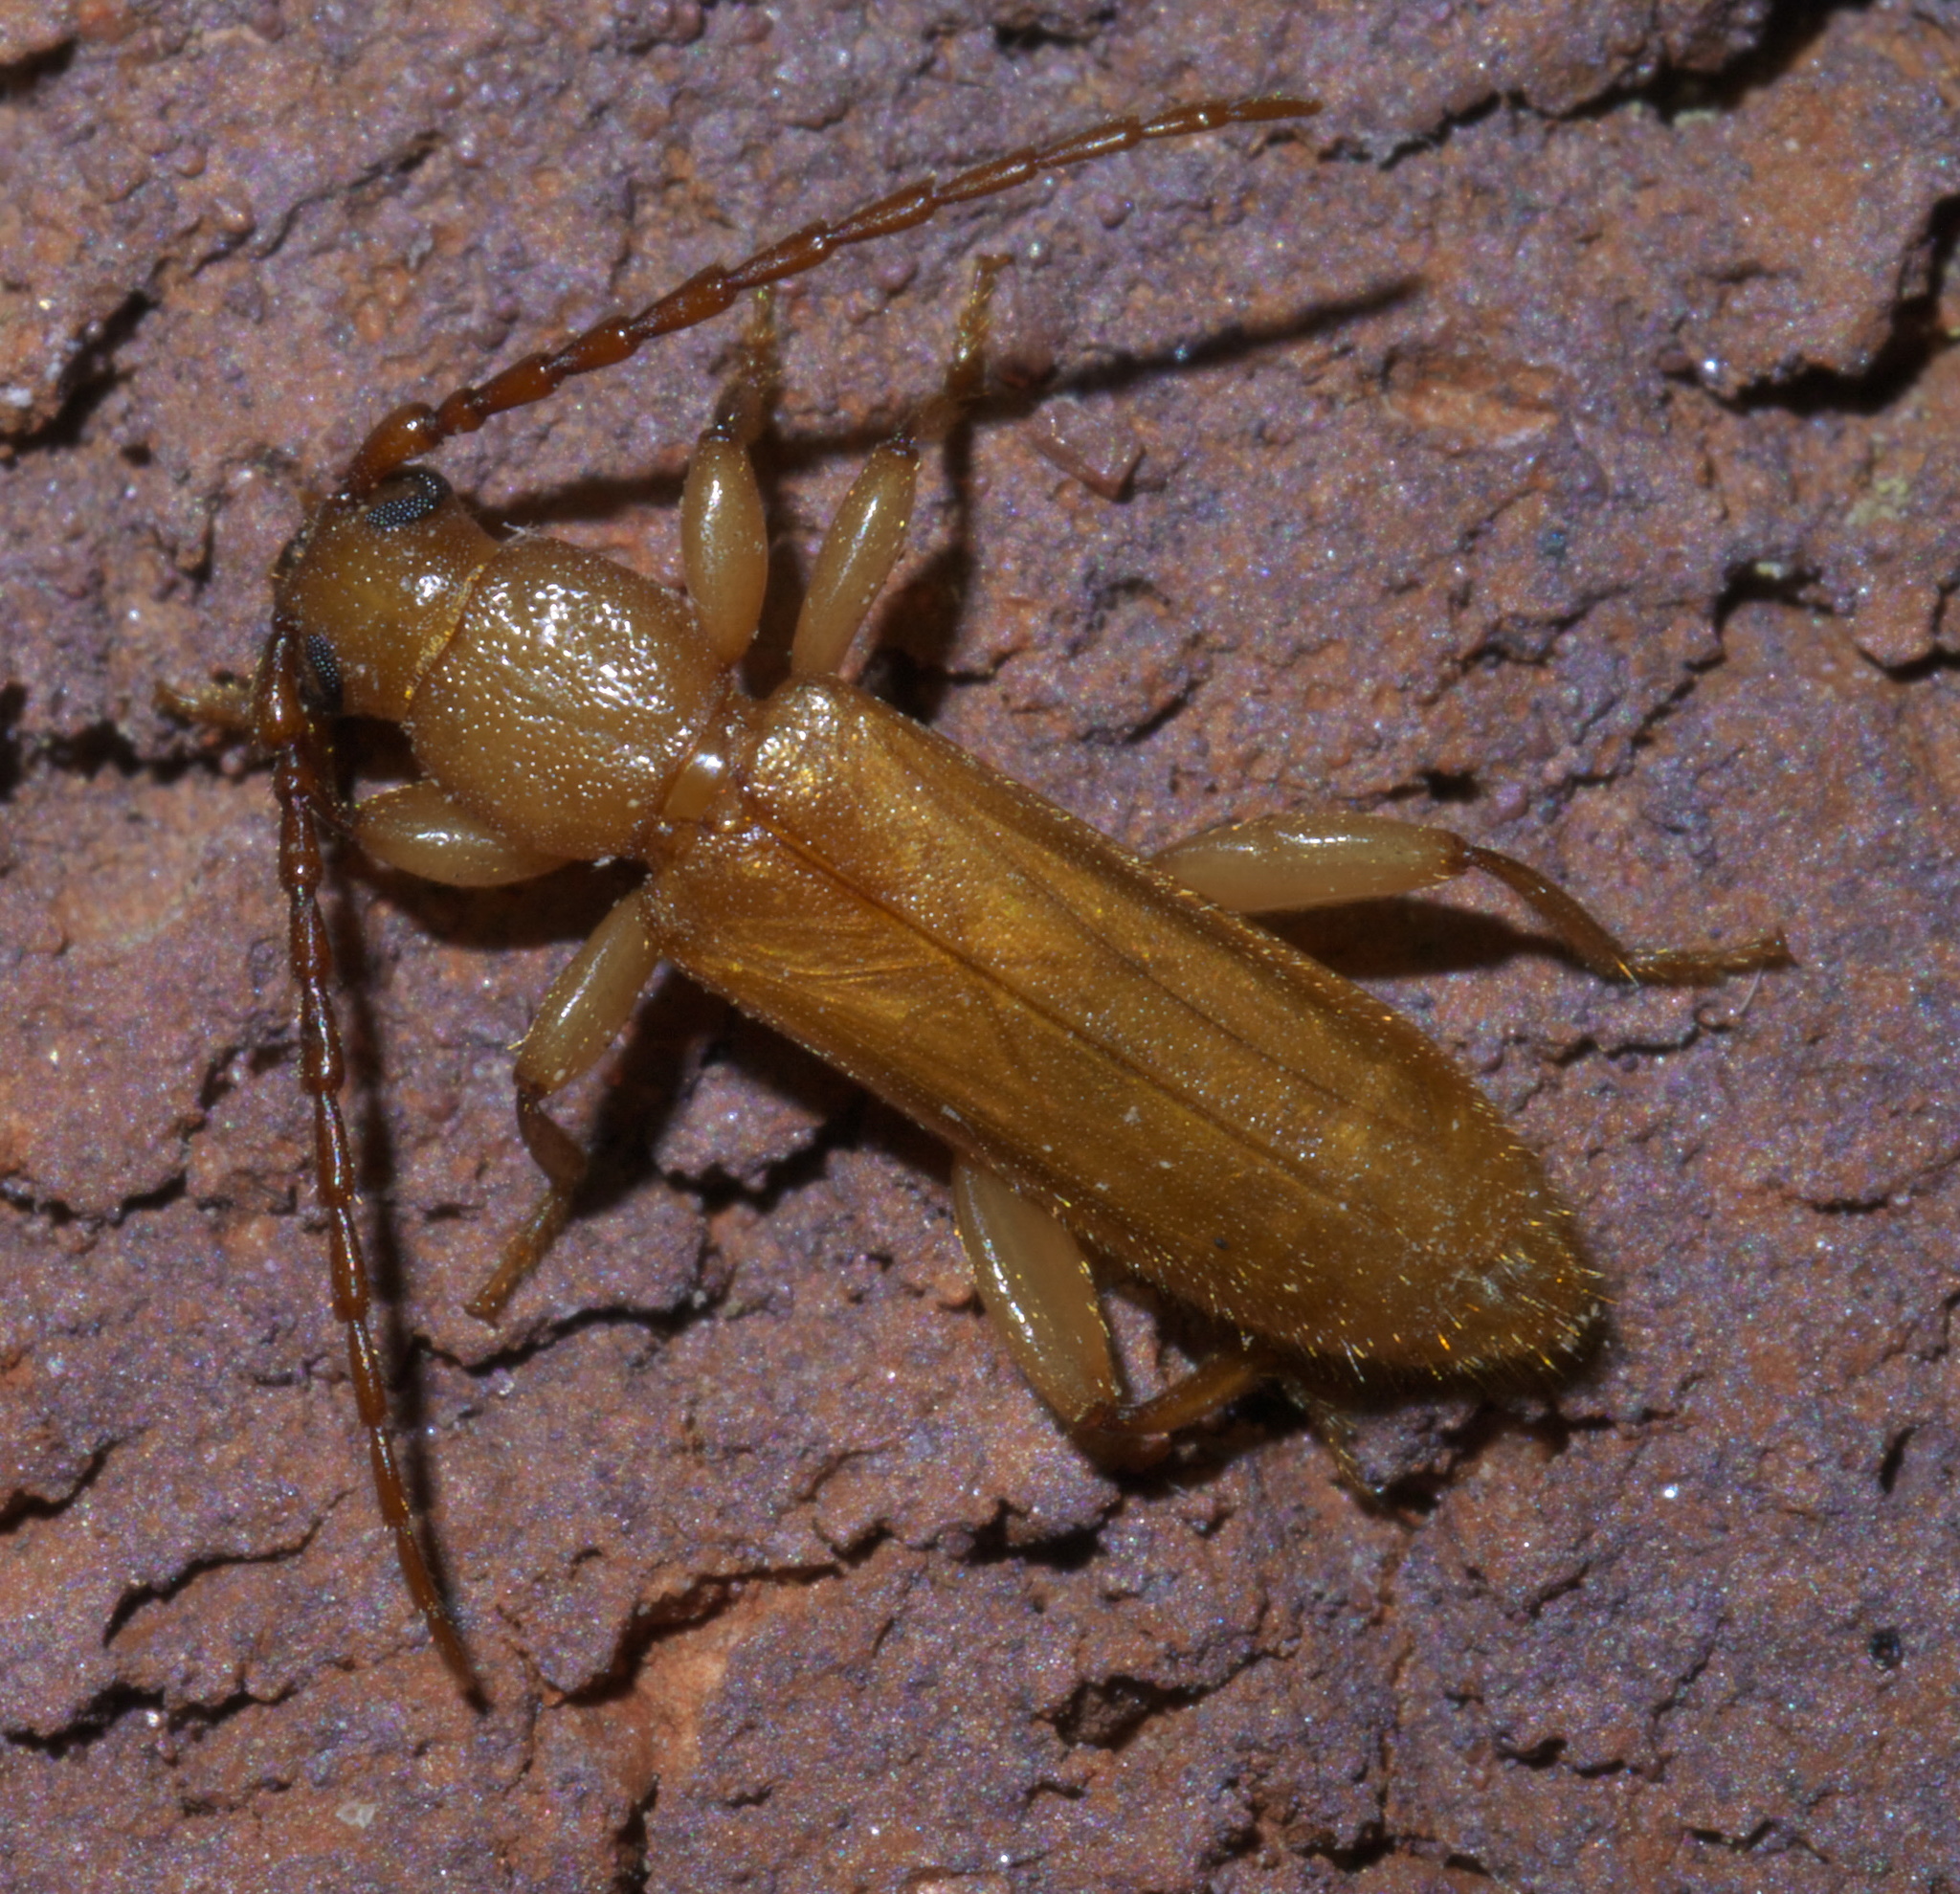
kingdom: Animalia
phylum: Arthropoda
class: Insecta
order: Coleoptera
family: Cerambycidae
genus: Smodicum
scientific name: Smodicum cucujiforme
